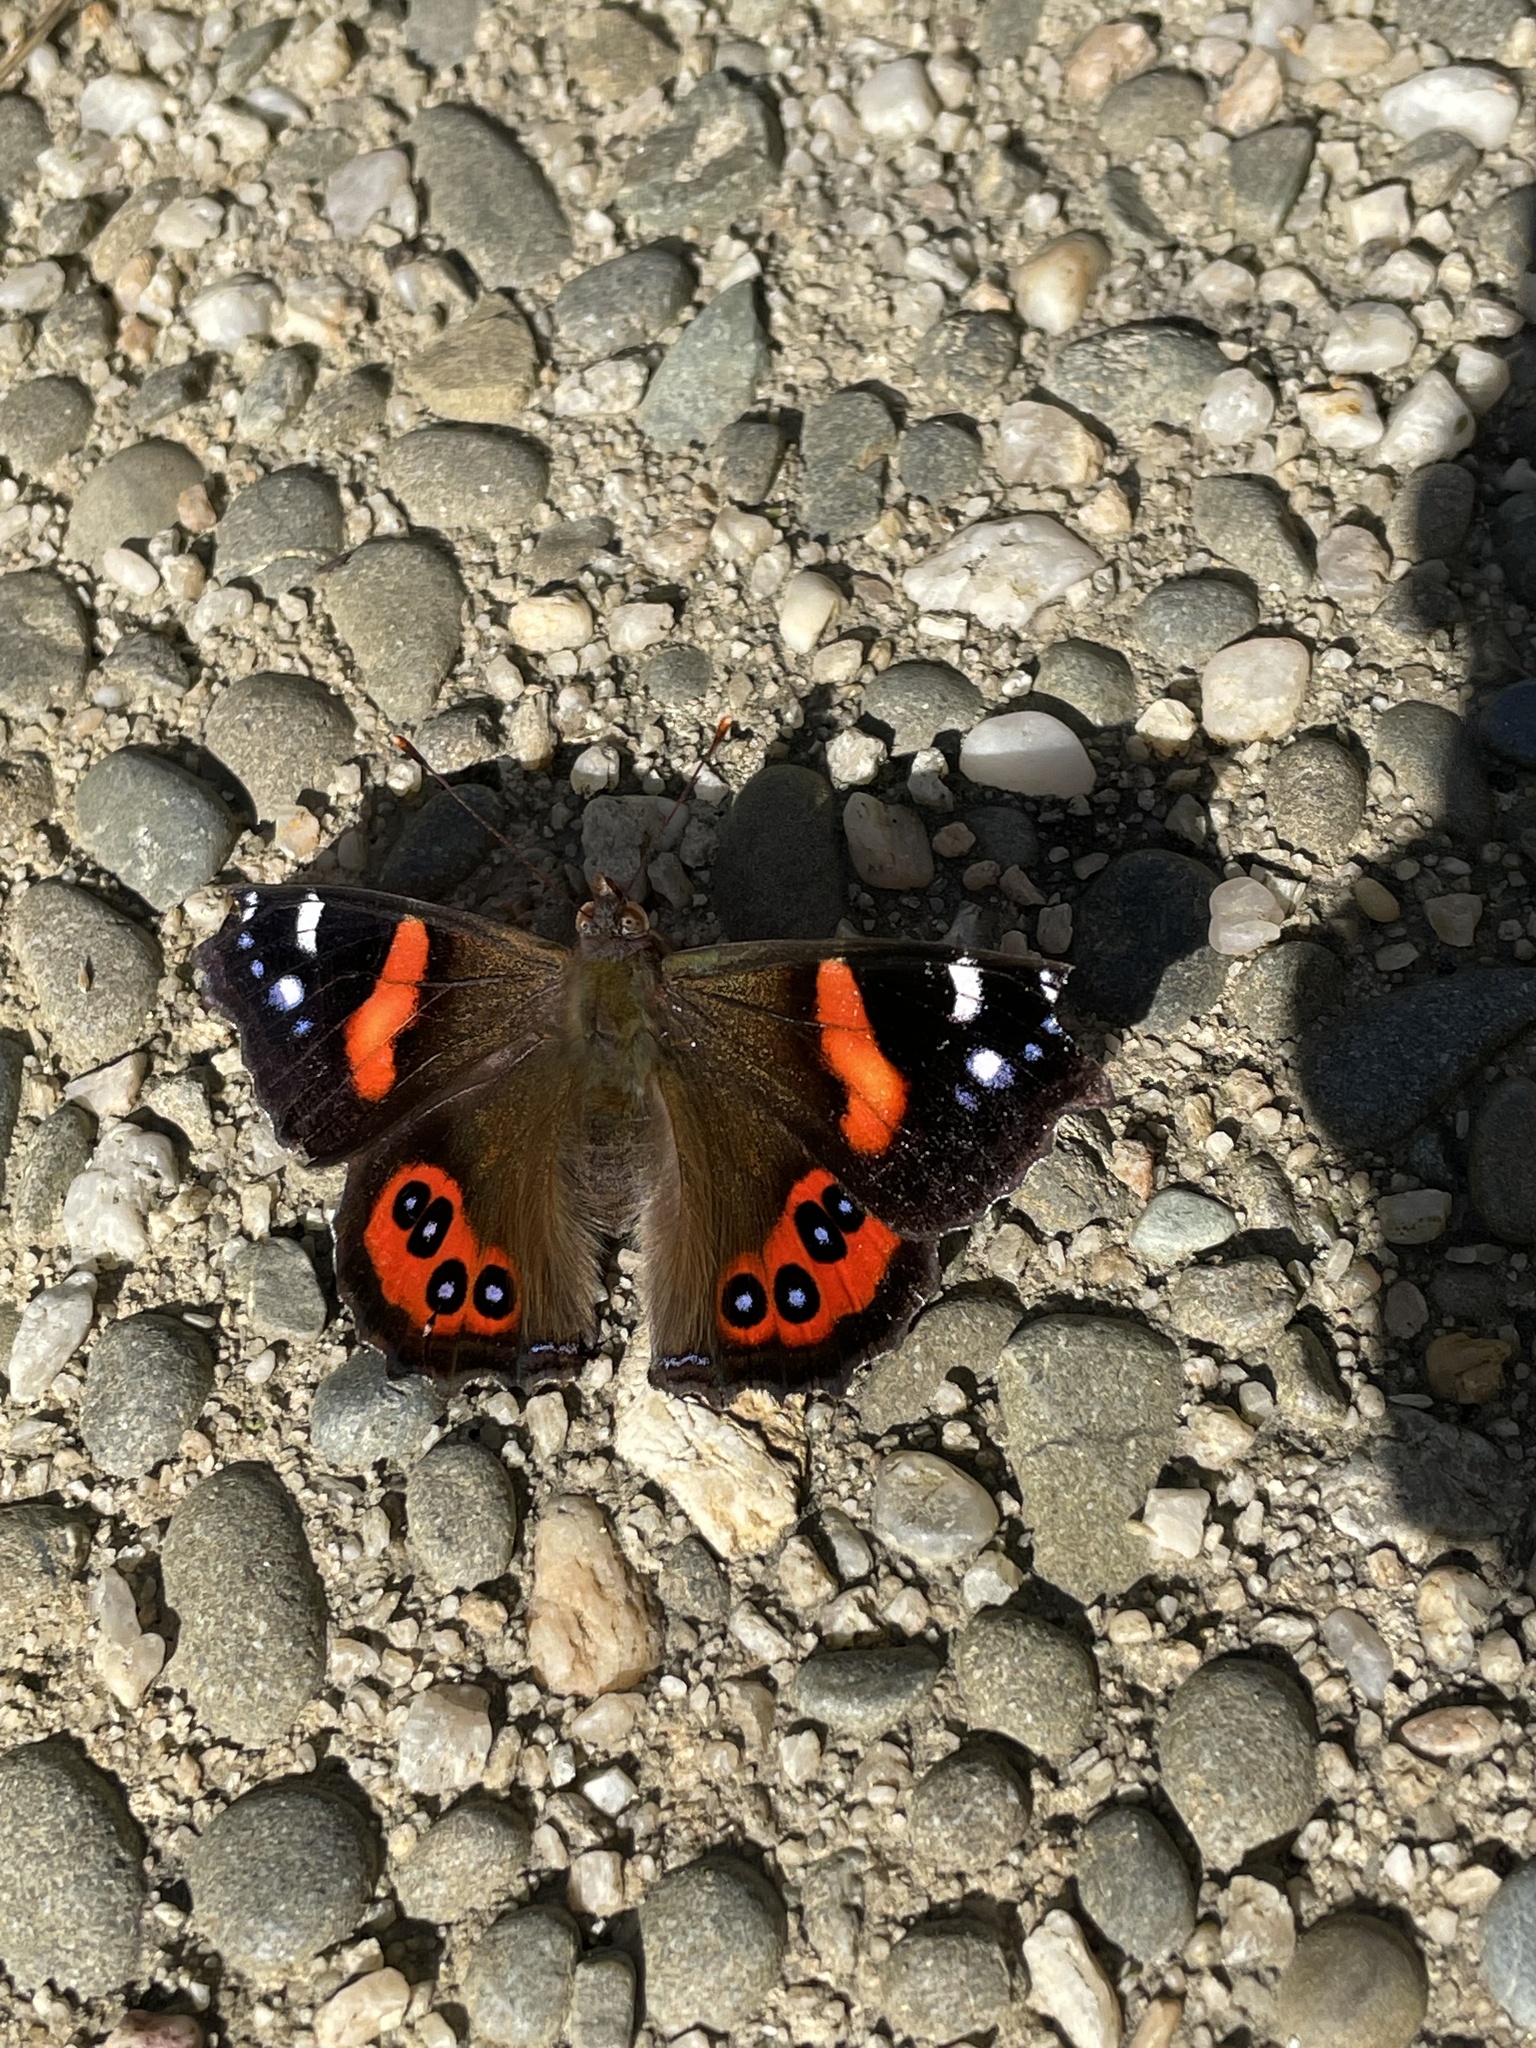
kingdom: Animalia
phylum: Arthropoda
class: Insecta
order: Lepidoptera
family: Nymphalidae
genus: Vanessa
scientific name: Vanessa gonerilla
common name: New zealand red admiral
